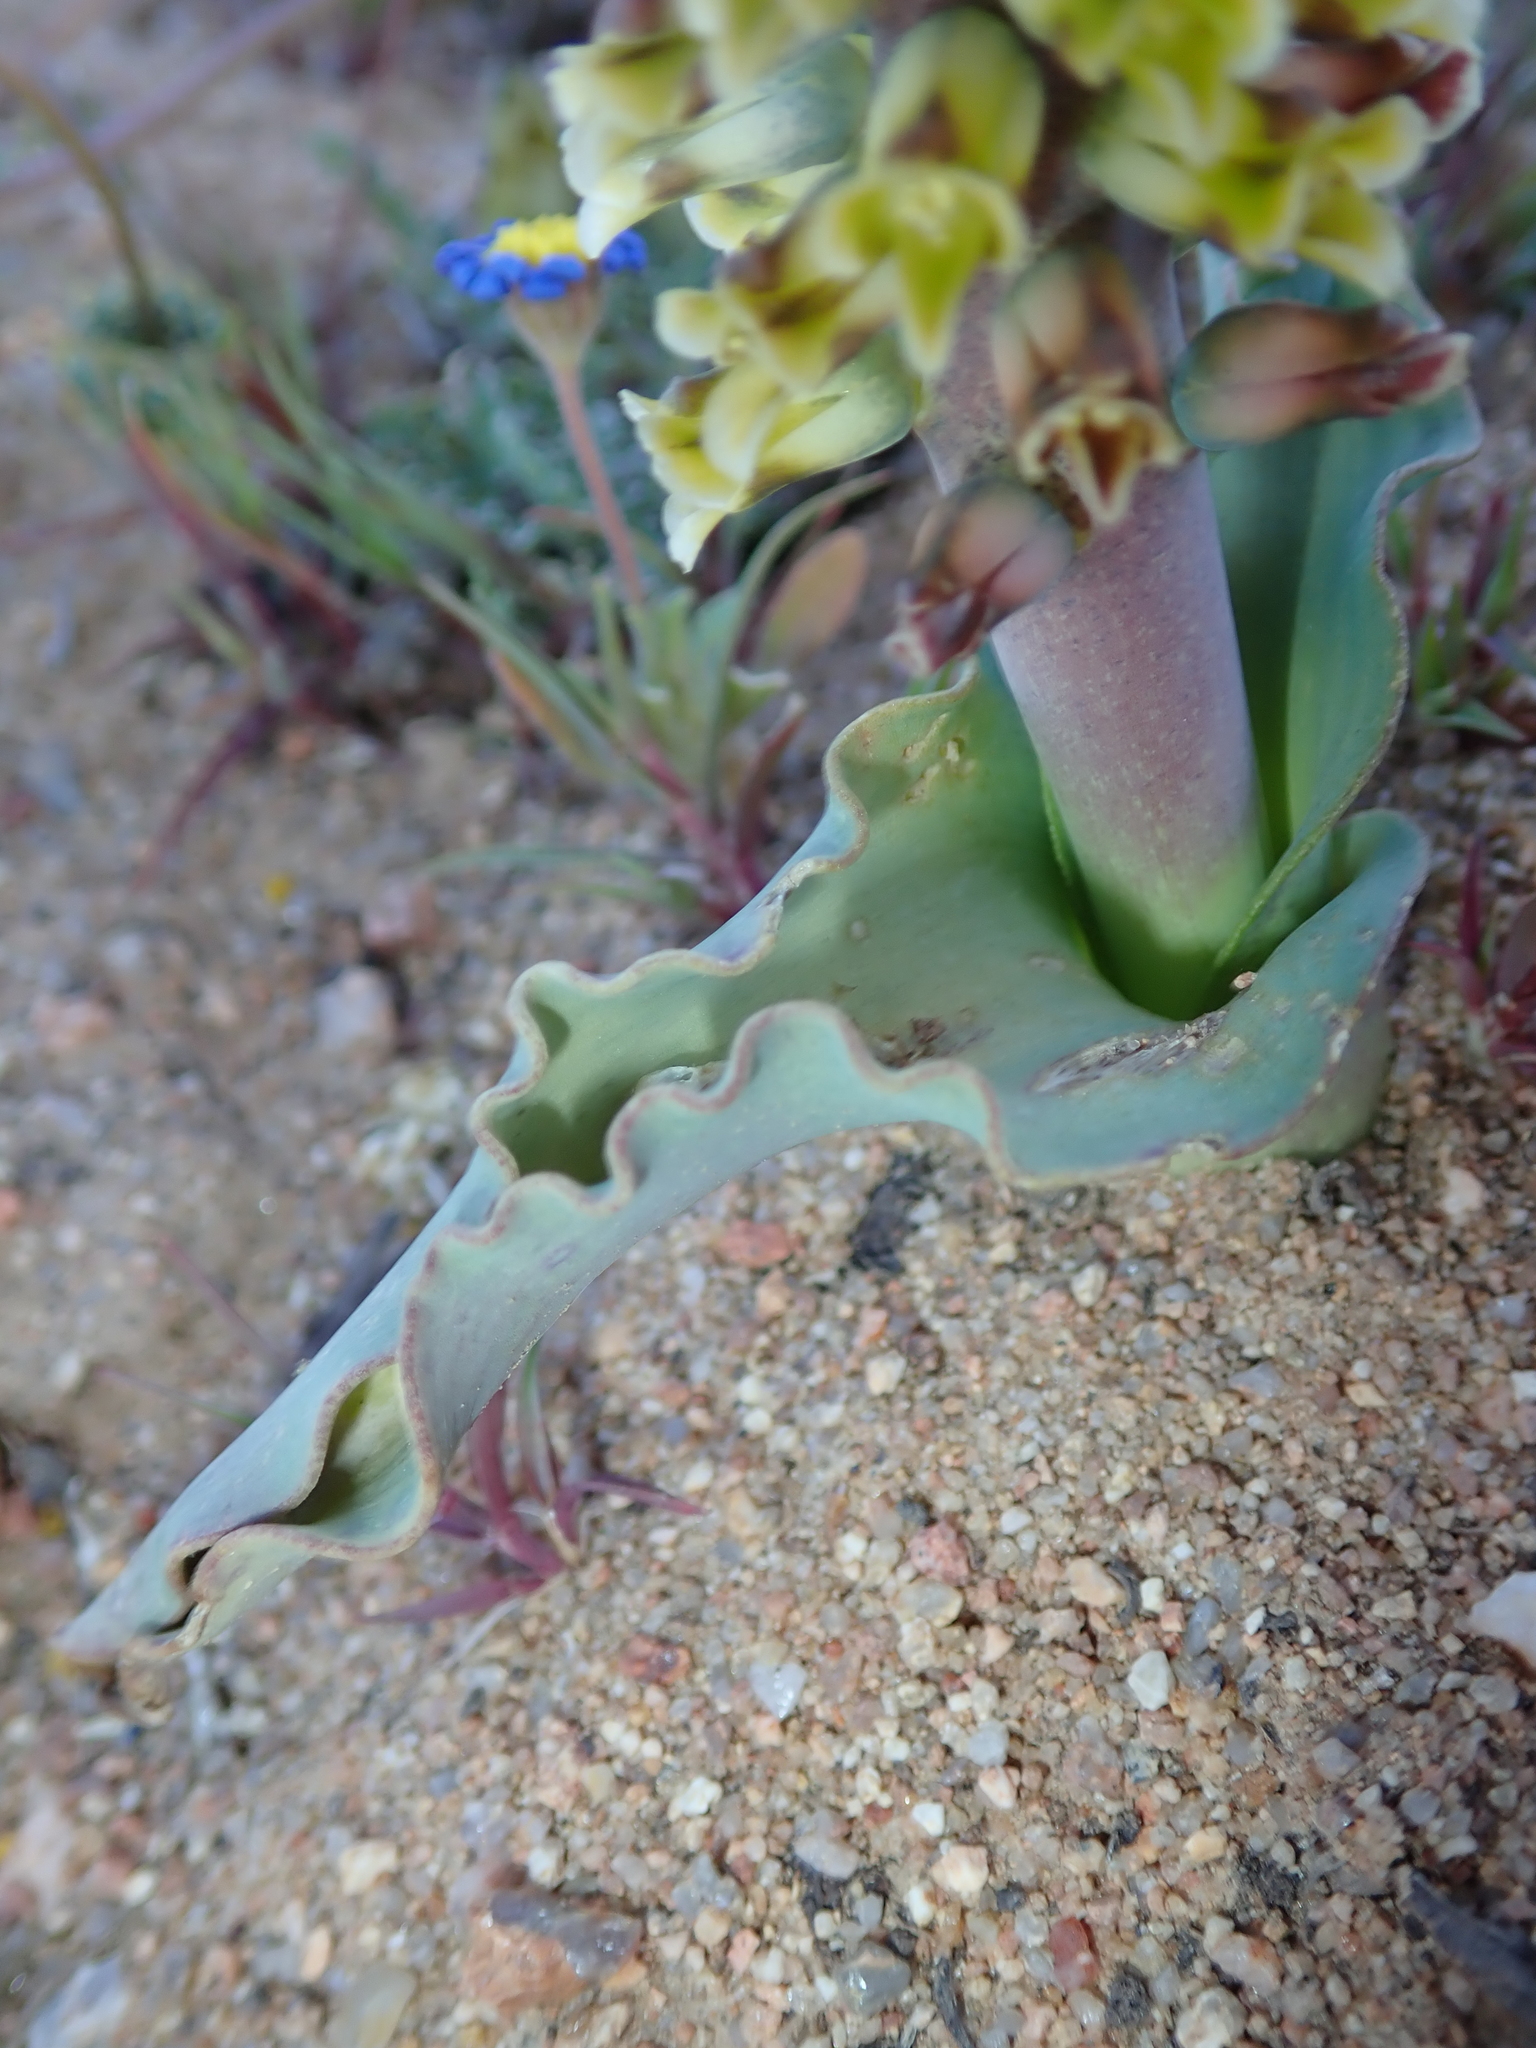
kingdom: Plantae
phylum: Tracheophyta
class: Liliopsida
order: Asparagales
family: Asparagaceae
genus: Lachenalia
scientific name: Lachenalia mutabilis
